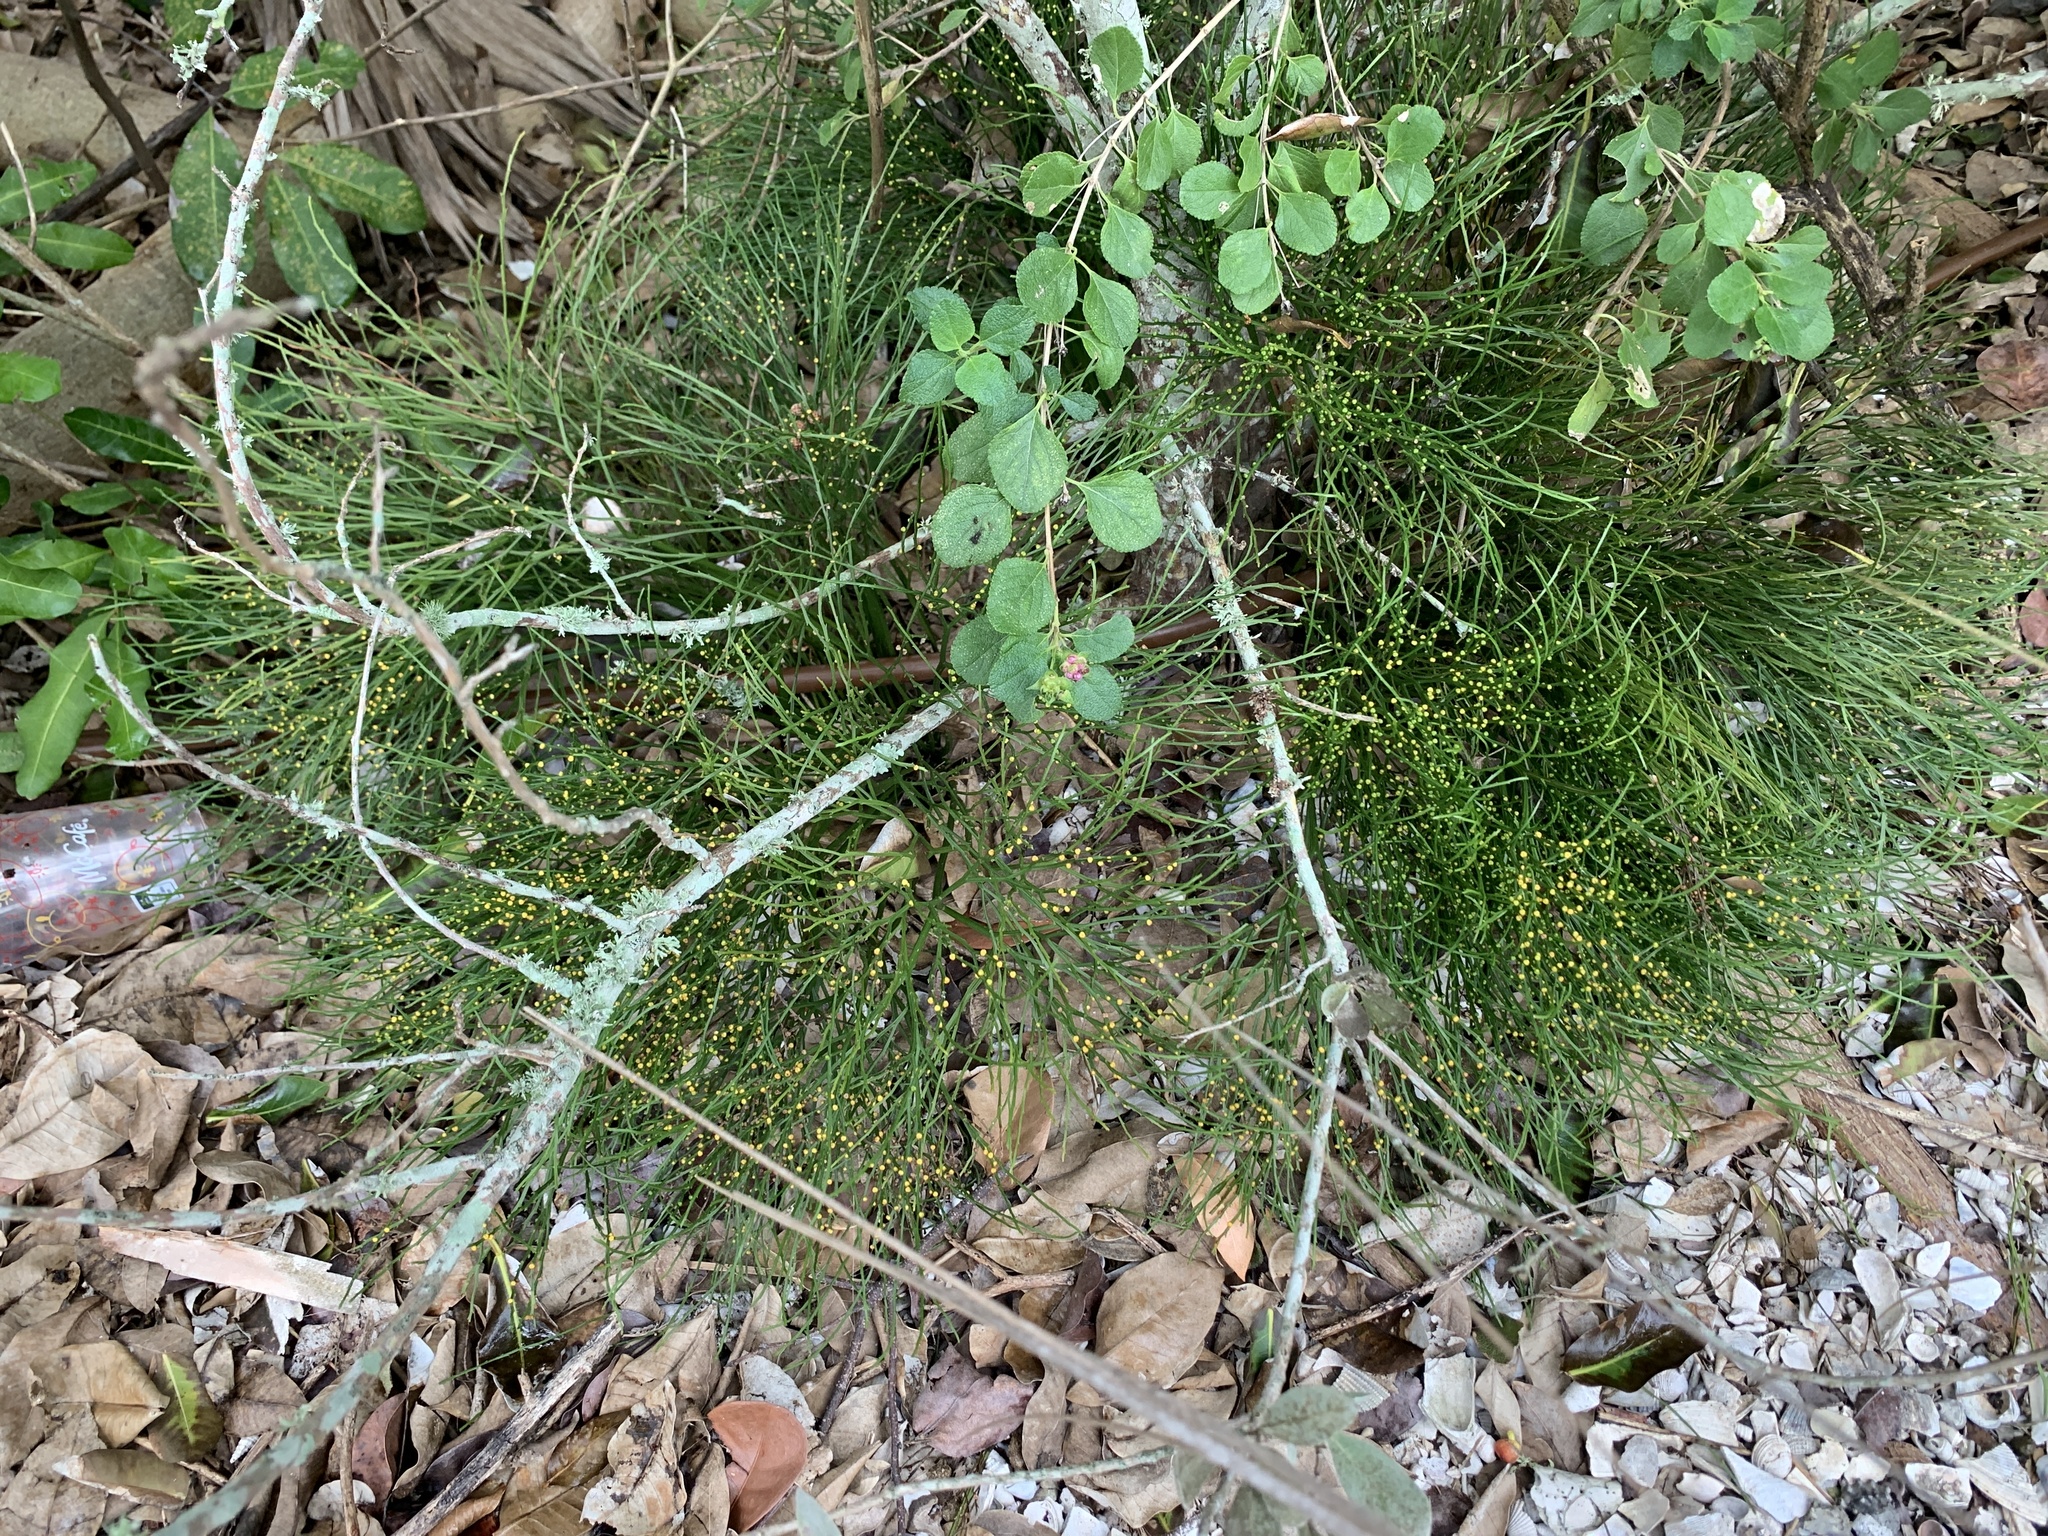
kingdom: Plantae
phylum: Tracheophyta
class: Polypodiopsida
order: Psilotales
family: Psilotaceae
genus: Psilotum
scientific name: Psilotum nudum
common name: Skeleton fork fern
